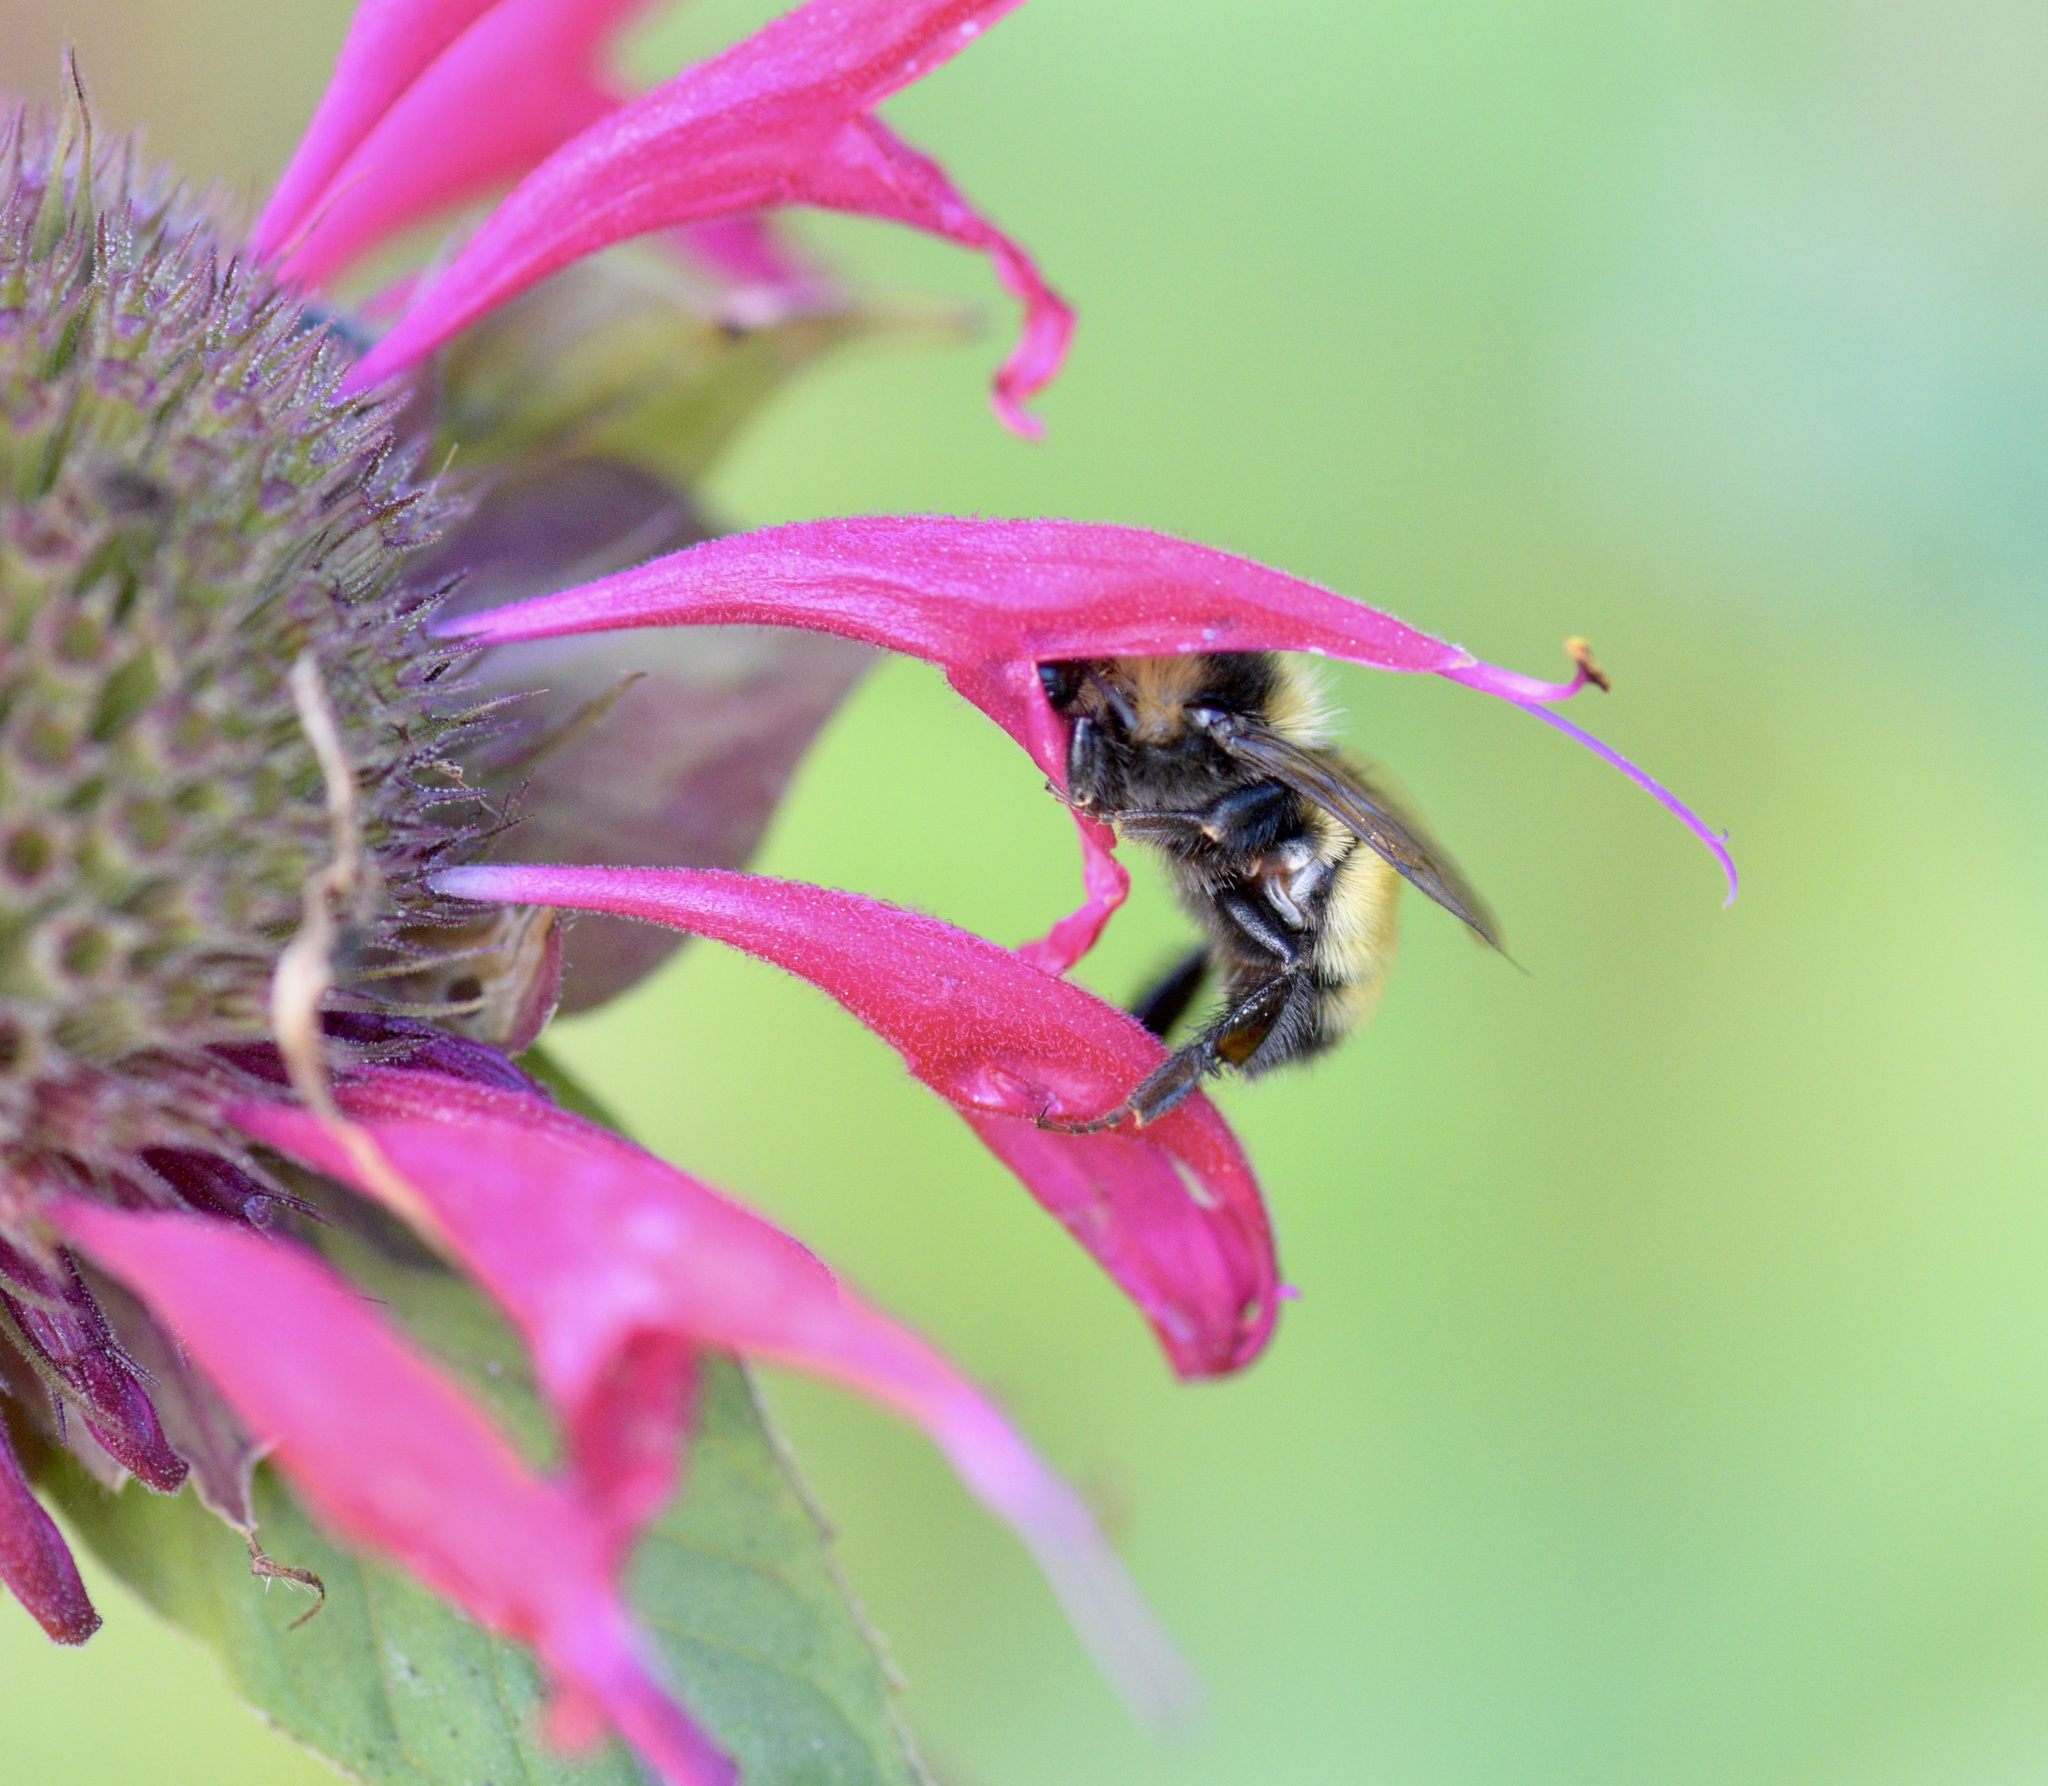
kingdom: Animalia
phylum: Arthropoda
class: Insecta
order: Hymenoptera
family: Apidae
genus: Bombus
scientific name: Bombus borealis
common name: Northern amber bumble bee
